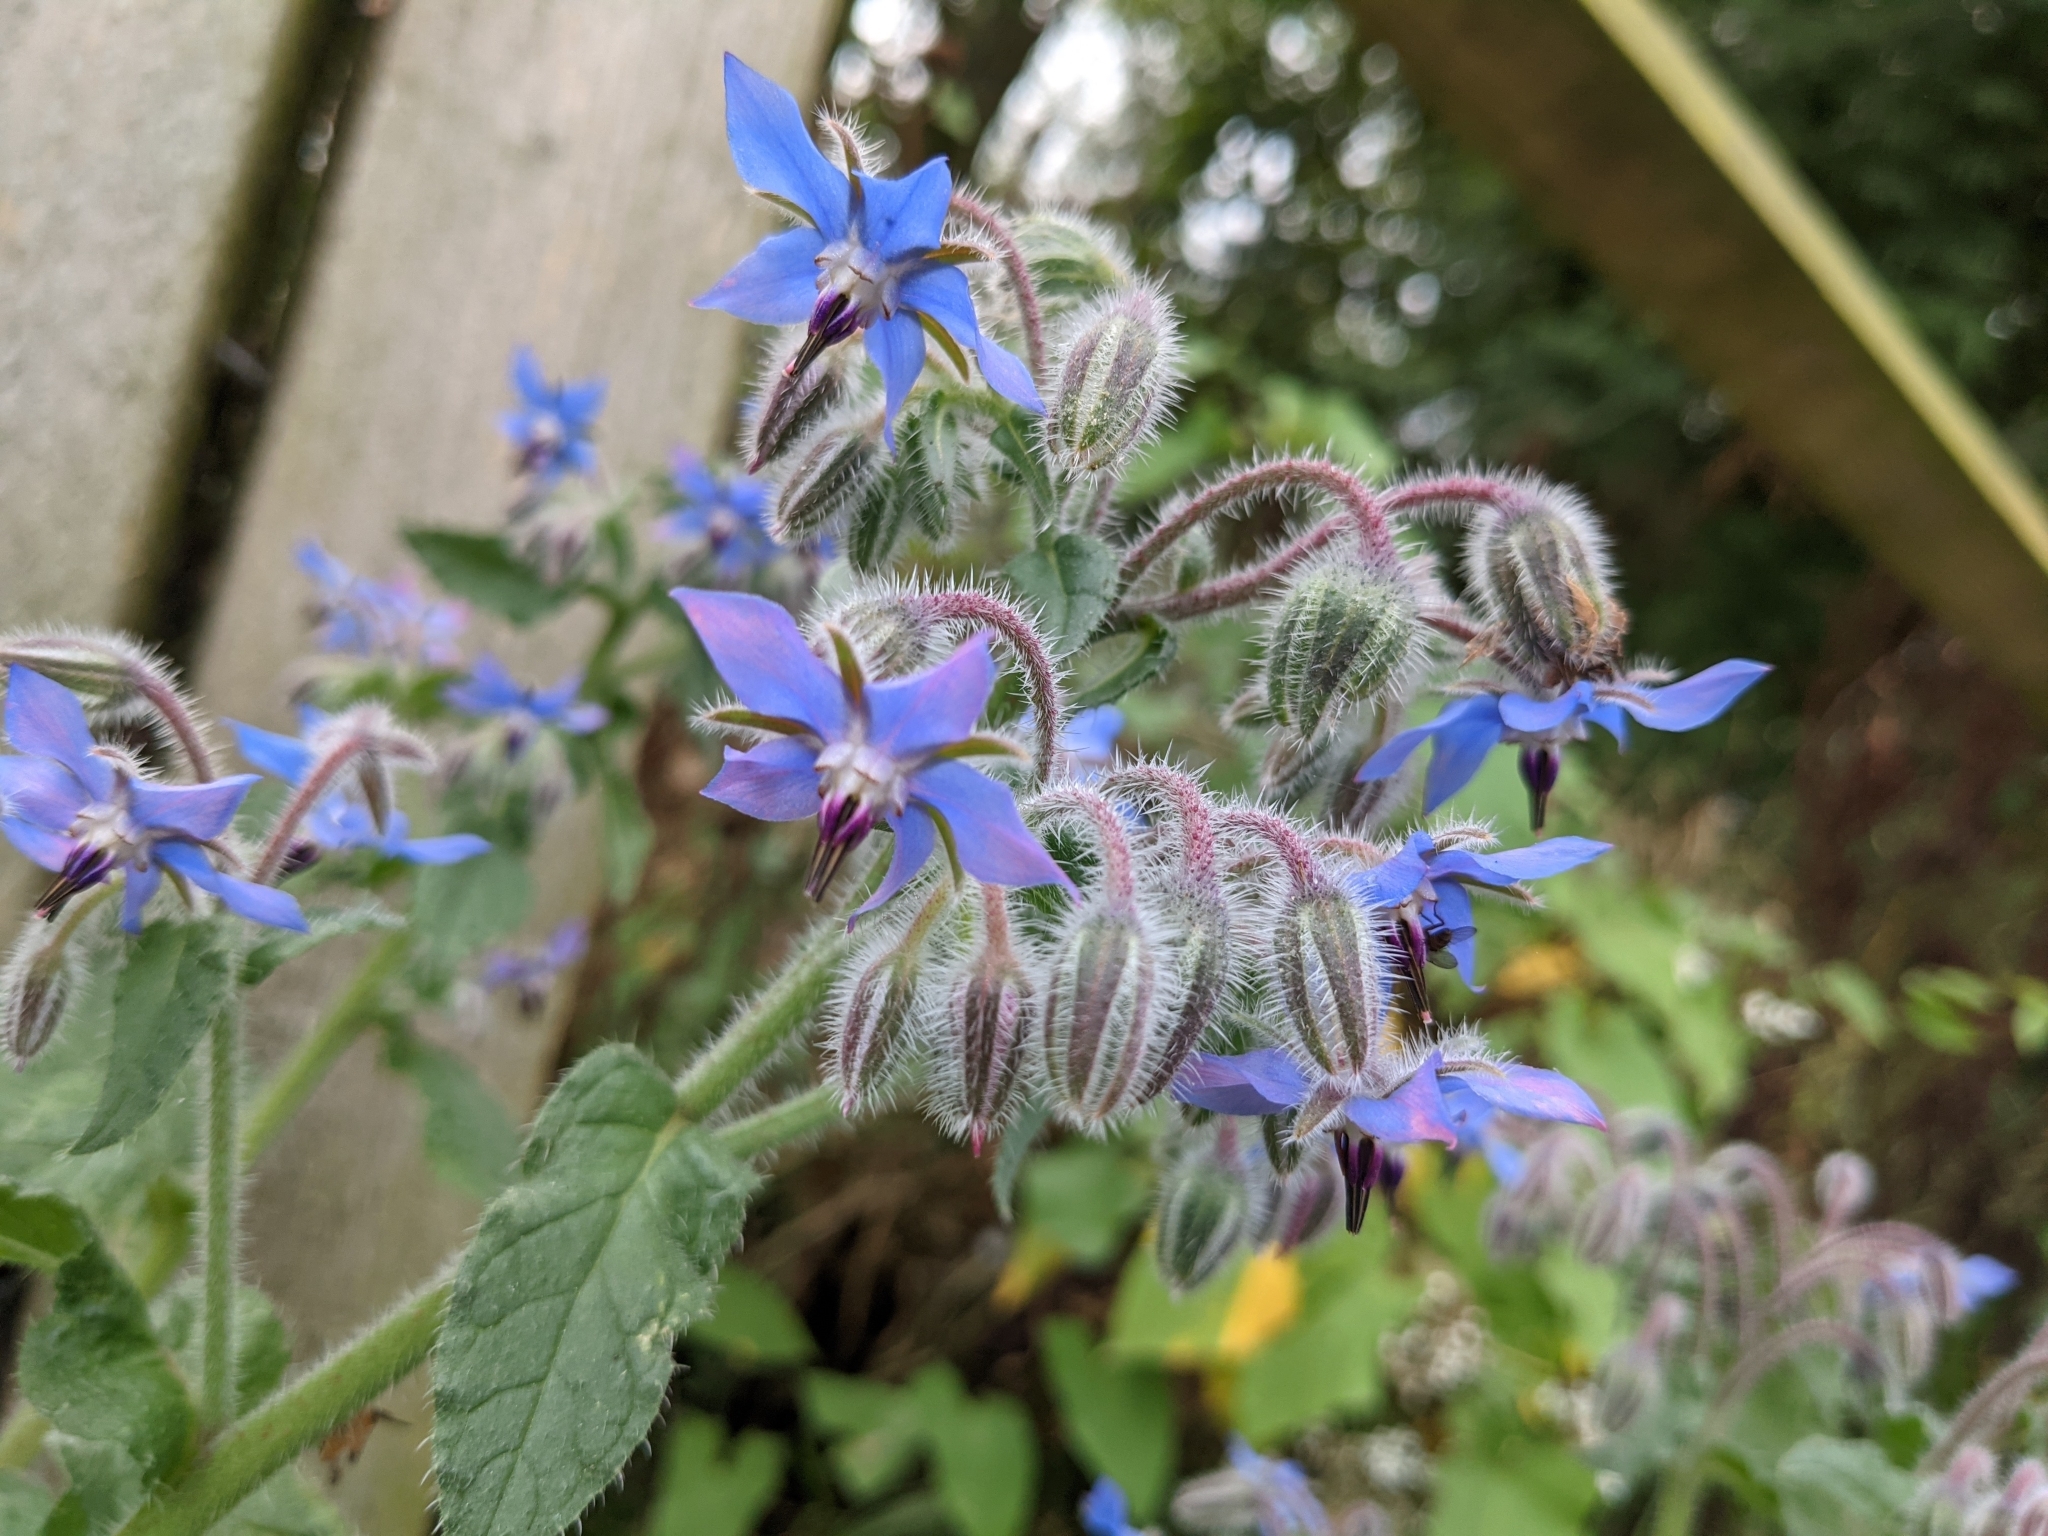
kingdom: Plantae
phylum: Tracheophyta
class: Magnoliopsida
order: Boraginales
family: Boraginaceae
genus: Borago
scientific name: Borago officinalis
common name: Borage
